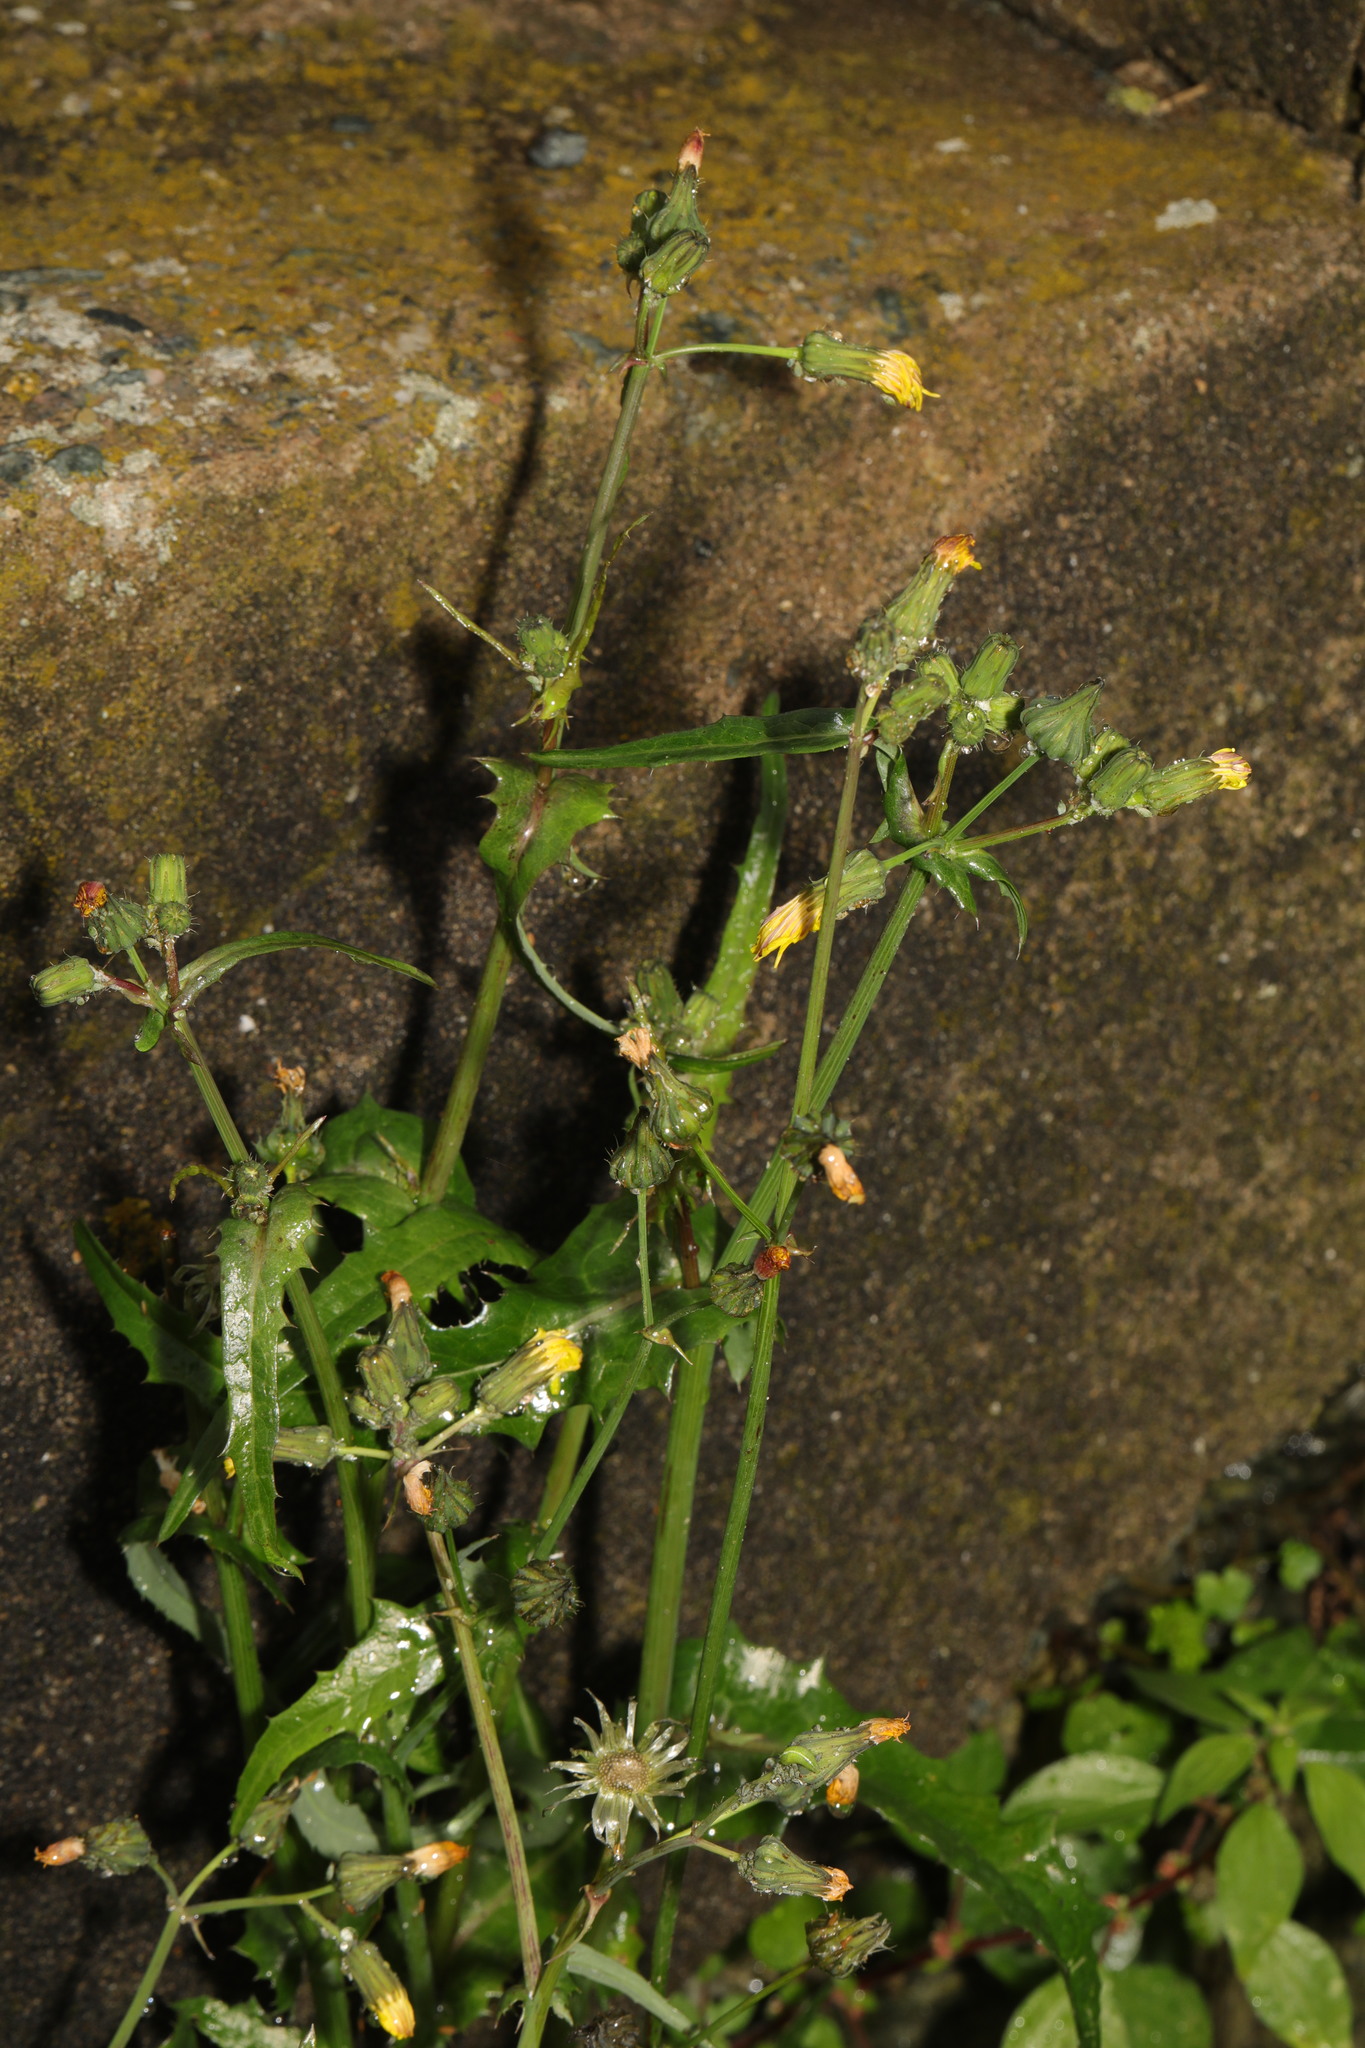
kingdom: Plantae
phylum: Tracheophyta
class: Magnoliopsida
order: Asterales
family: Asteraceae
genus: Sonchus
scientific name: Sonchus oleraceus
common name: Common sowthistle
